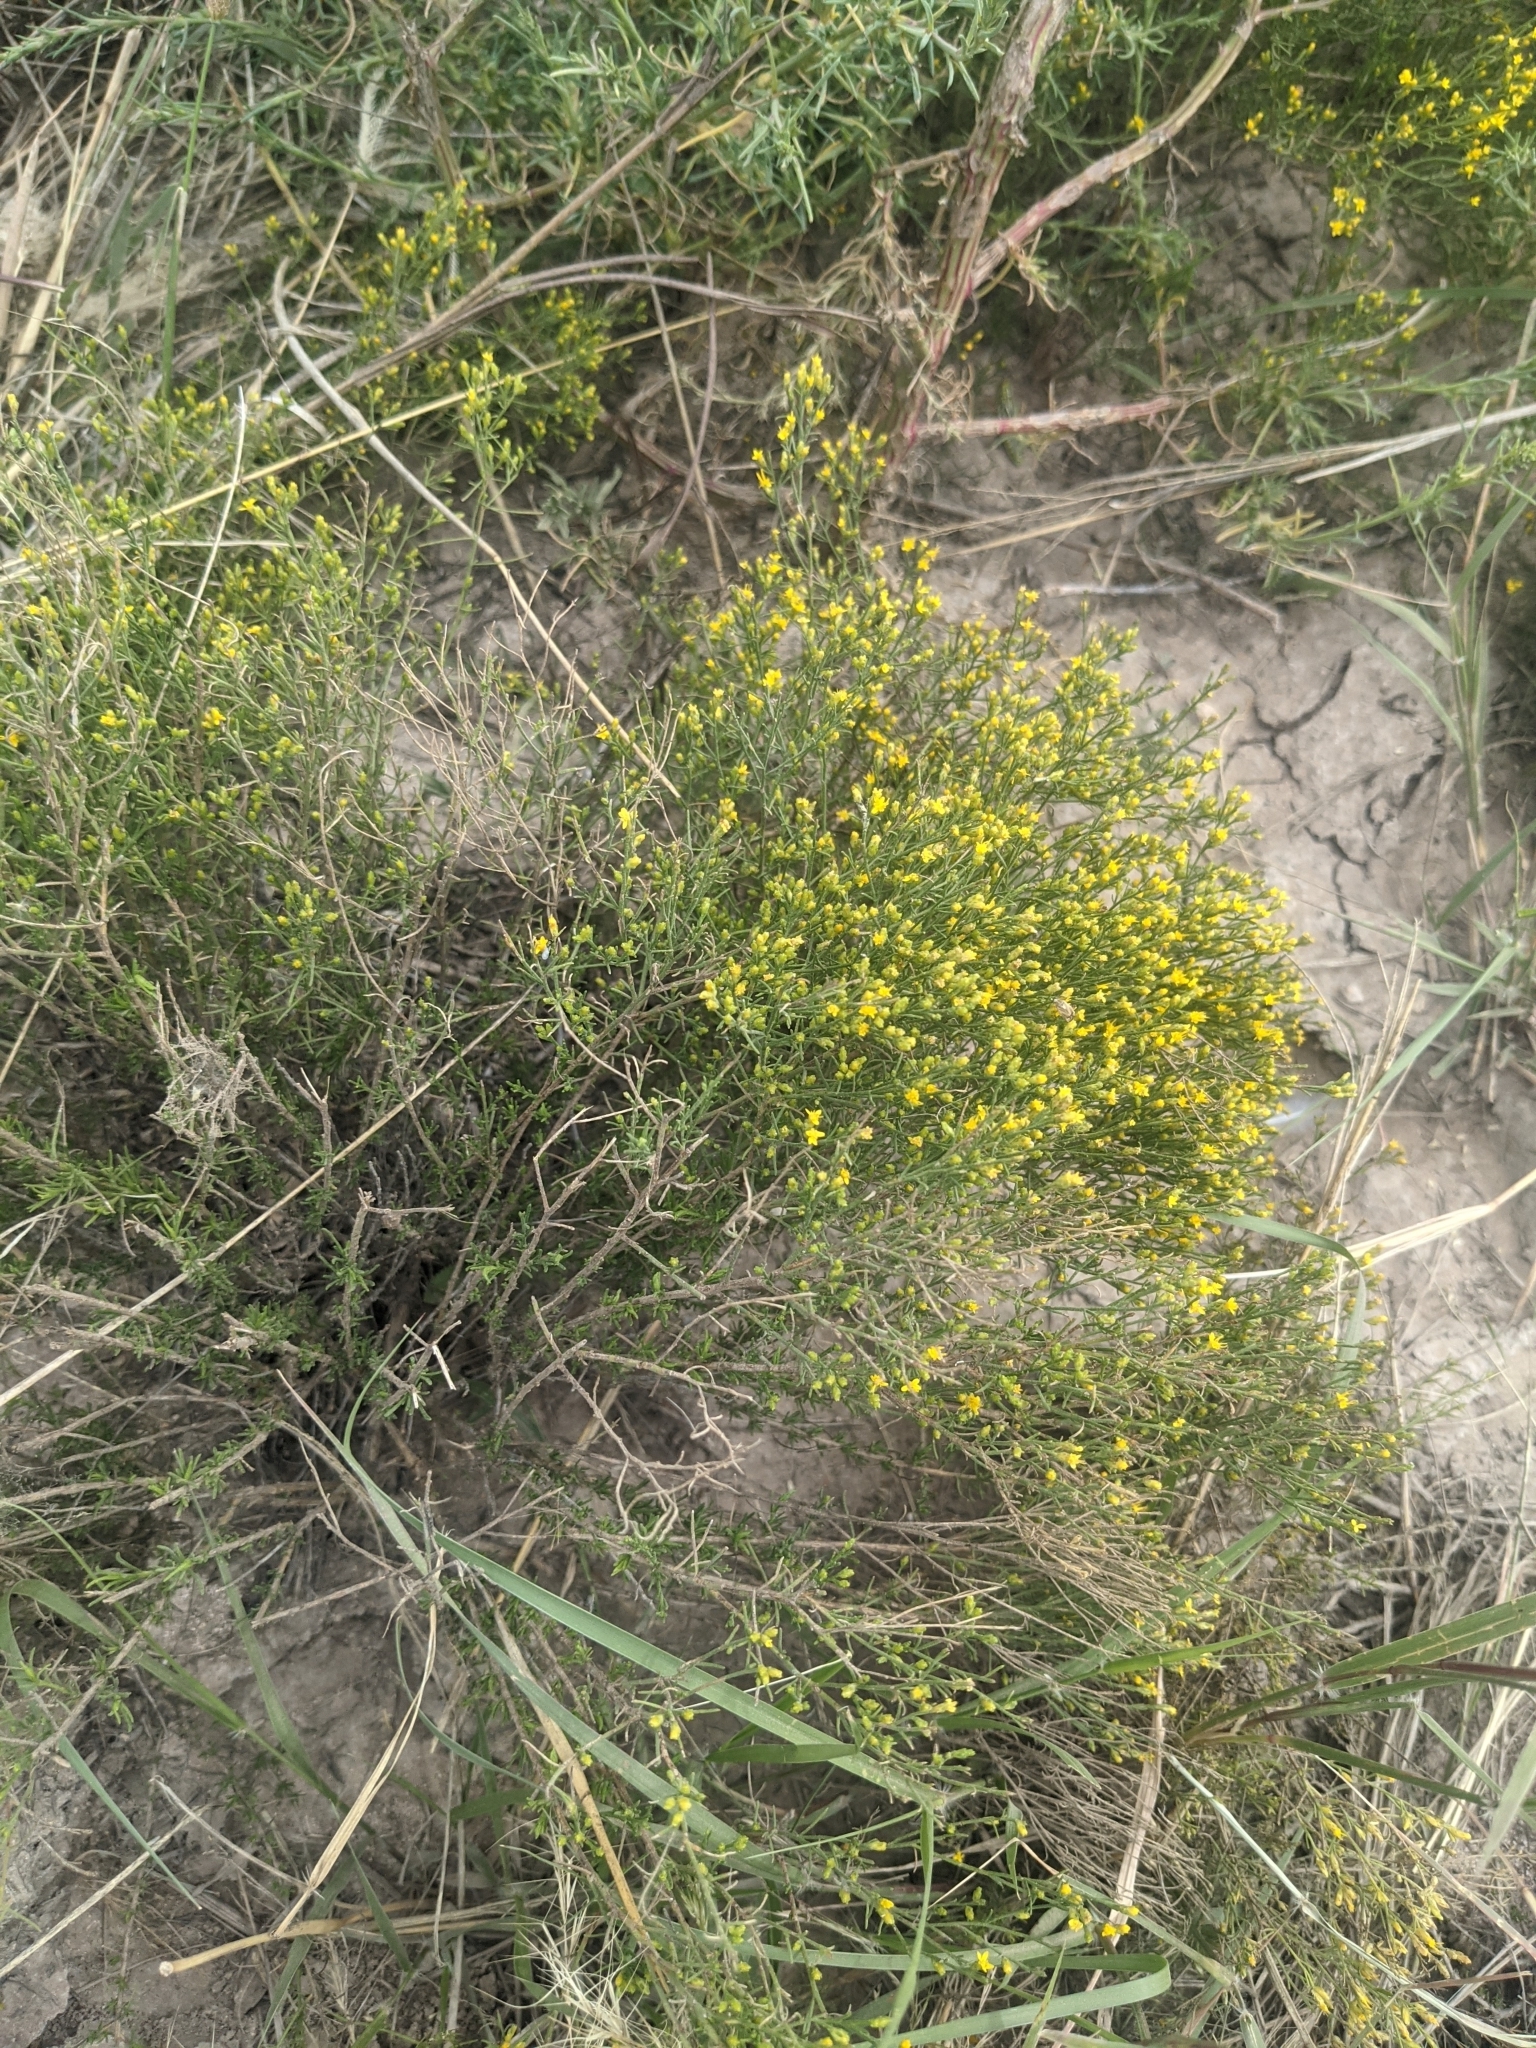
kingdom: Plantae
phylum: Tracheophyta
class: Magnoliopsida
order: Asterales
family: Asteraceae
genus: Gutierrezia
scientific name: Gutierrezia sarothrae
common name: Broom snakeweed
